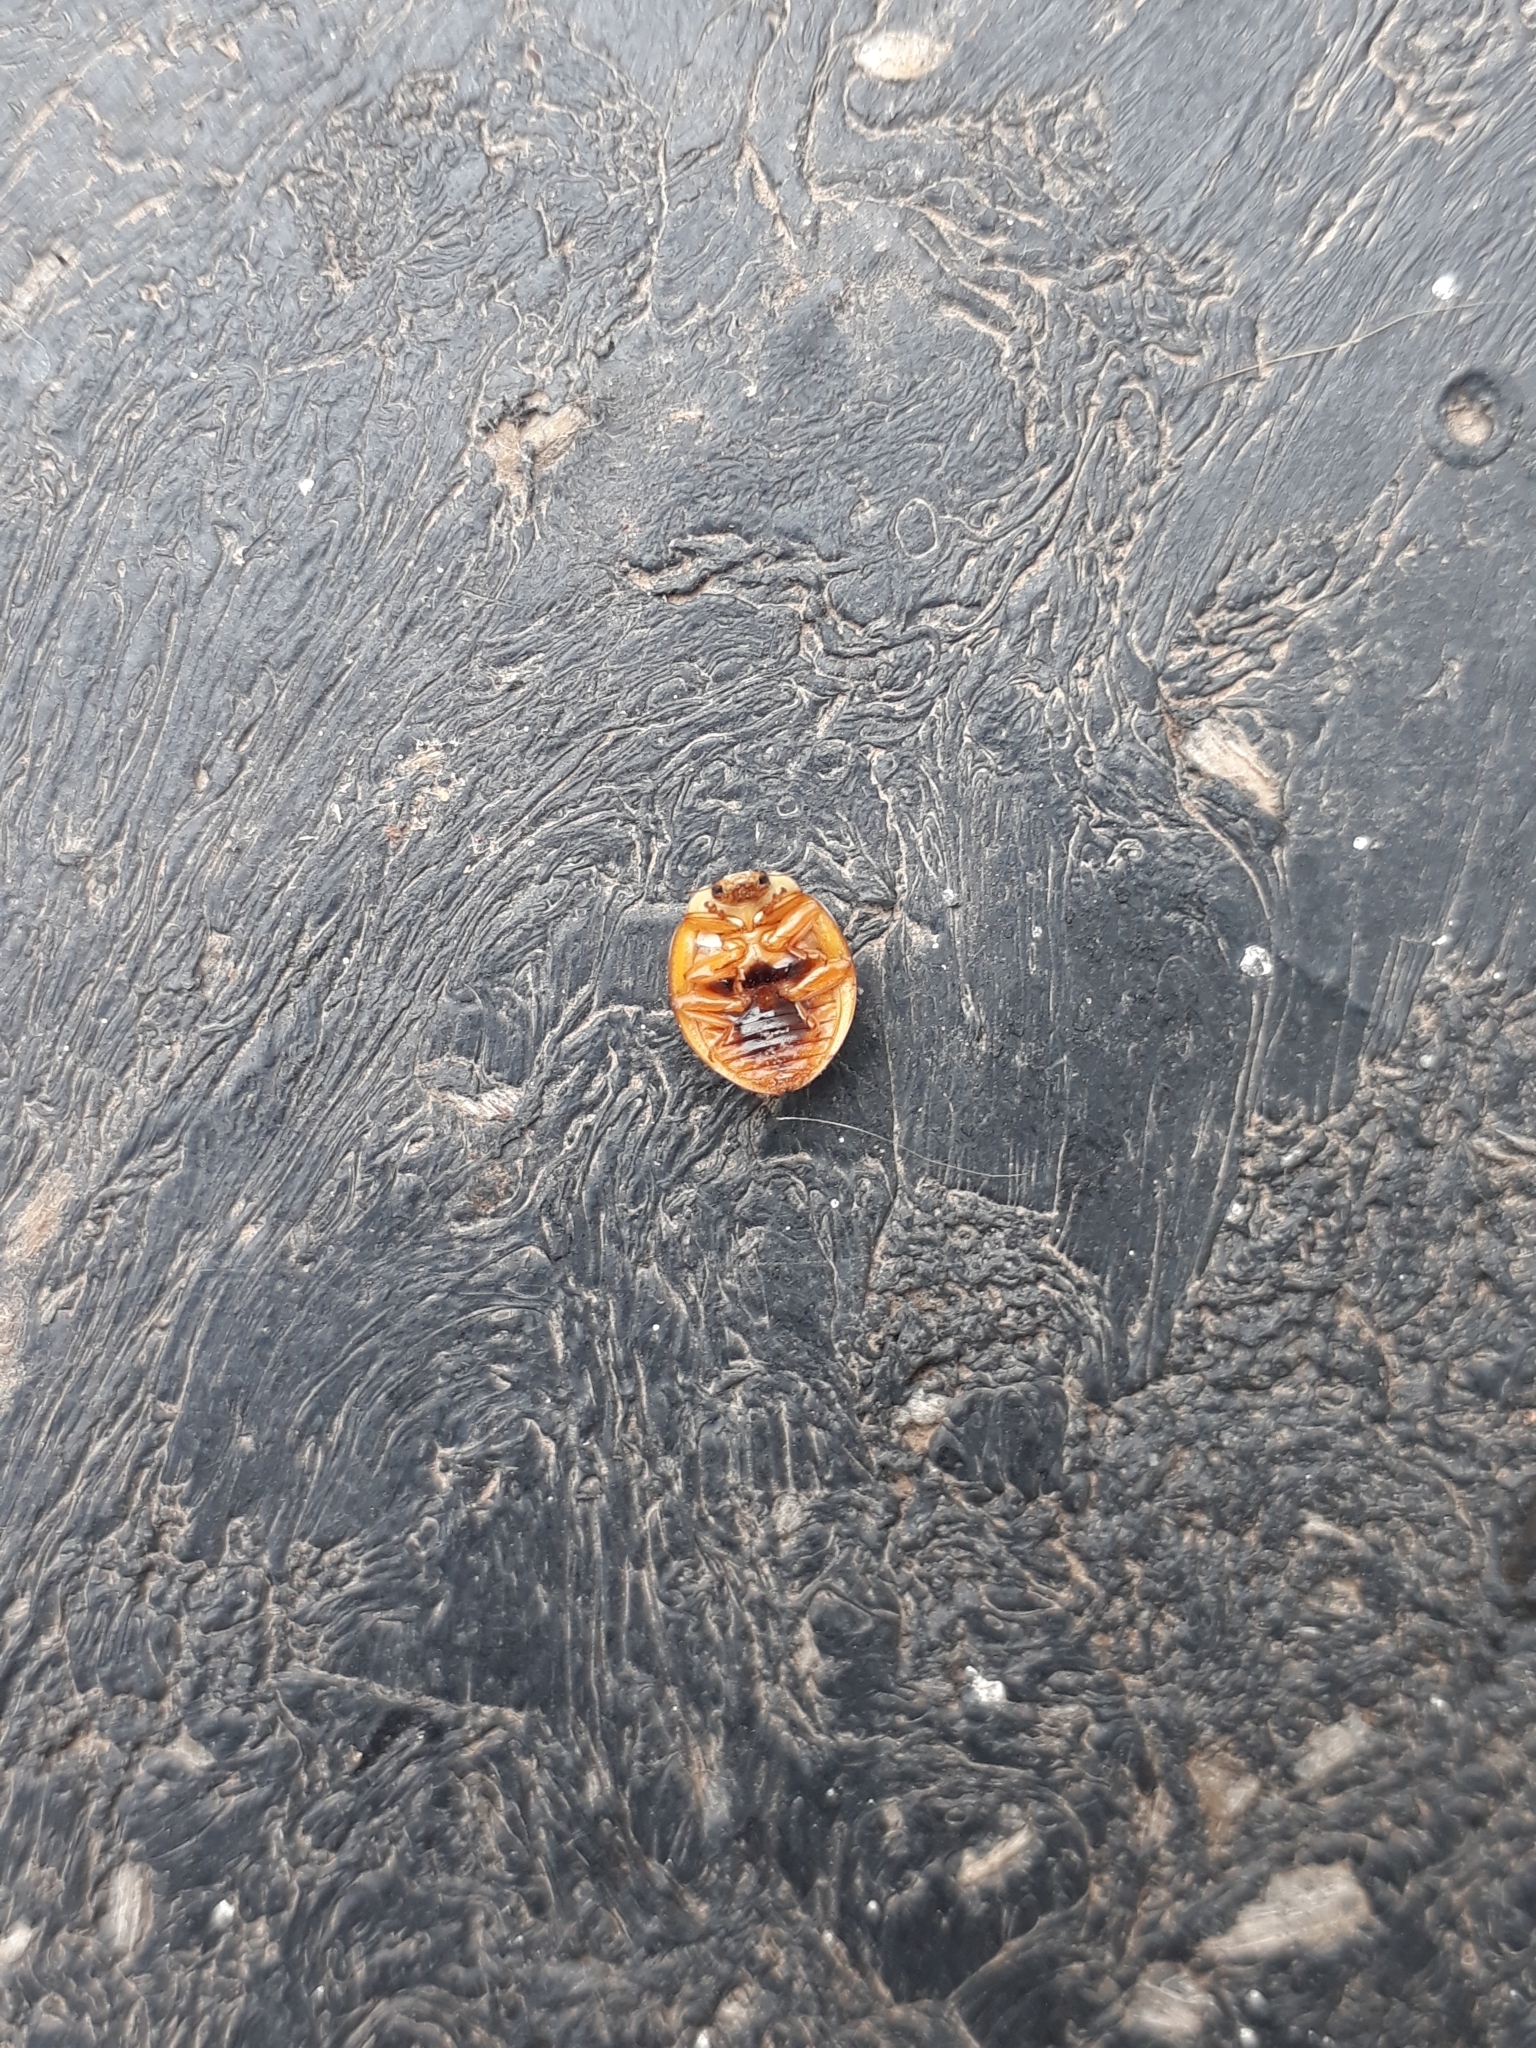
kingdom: Animalia
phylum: Arthropoda
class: Insecta
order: Coleoptera
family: Coccinellidae
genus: Harmonia
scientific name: Harmonia axyridis
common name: Harlequin ladybird
